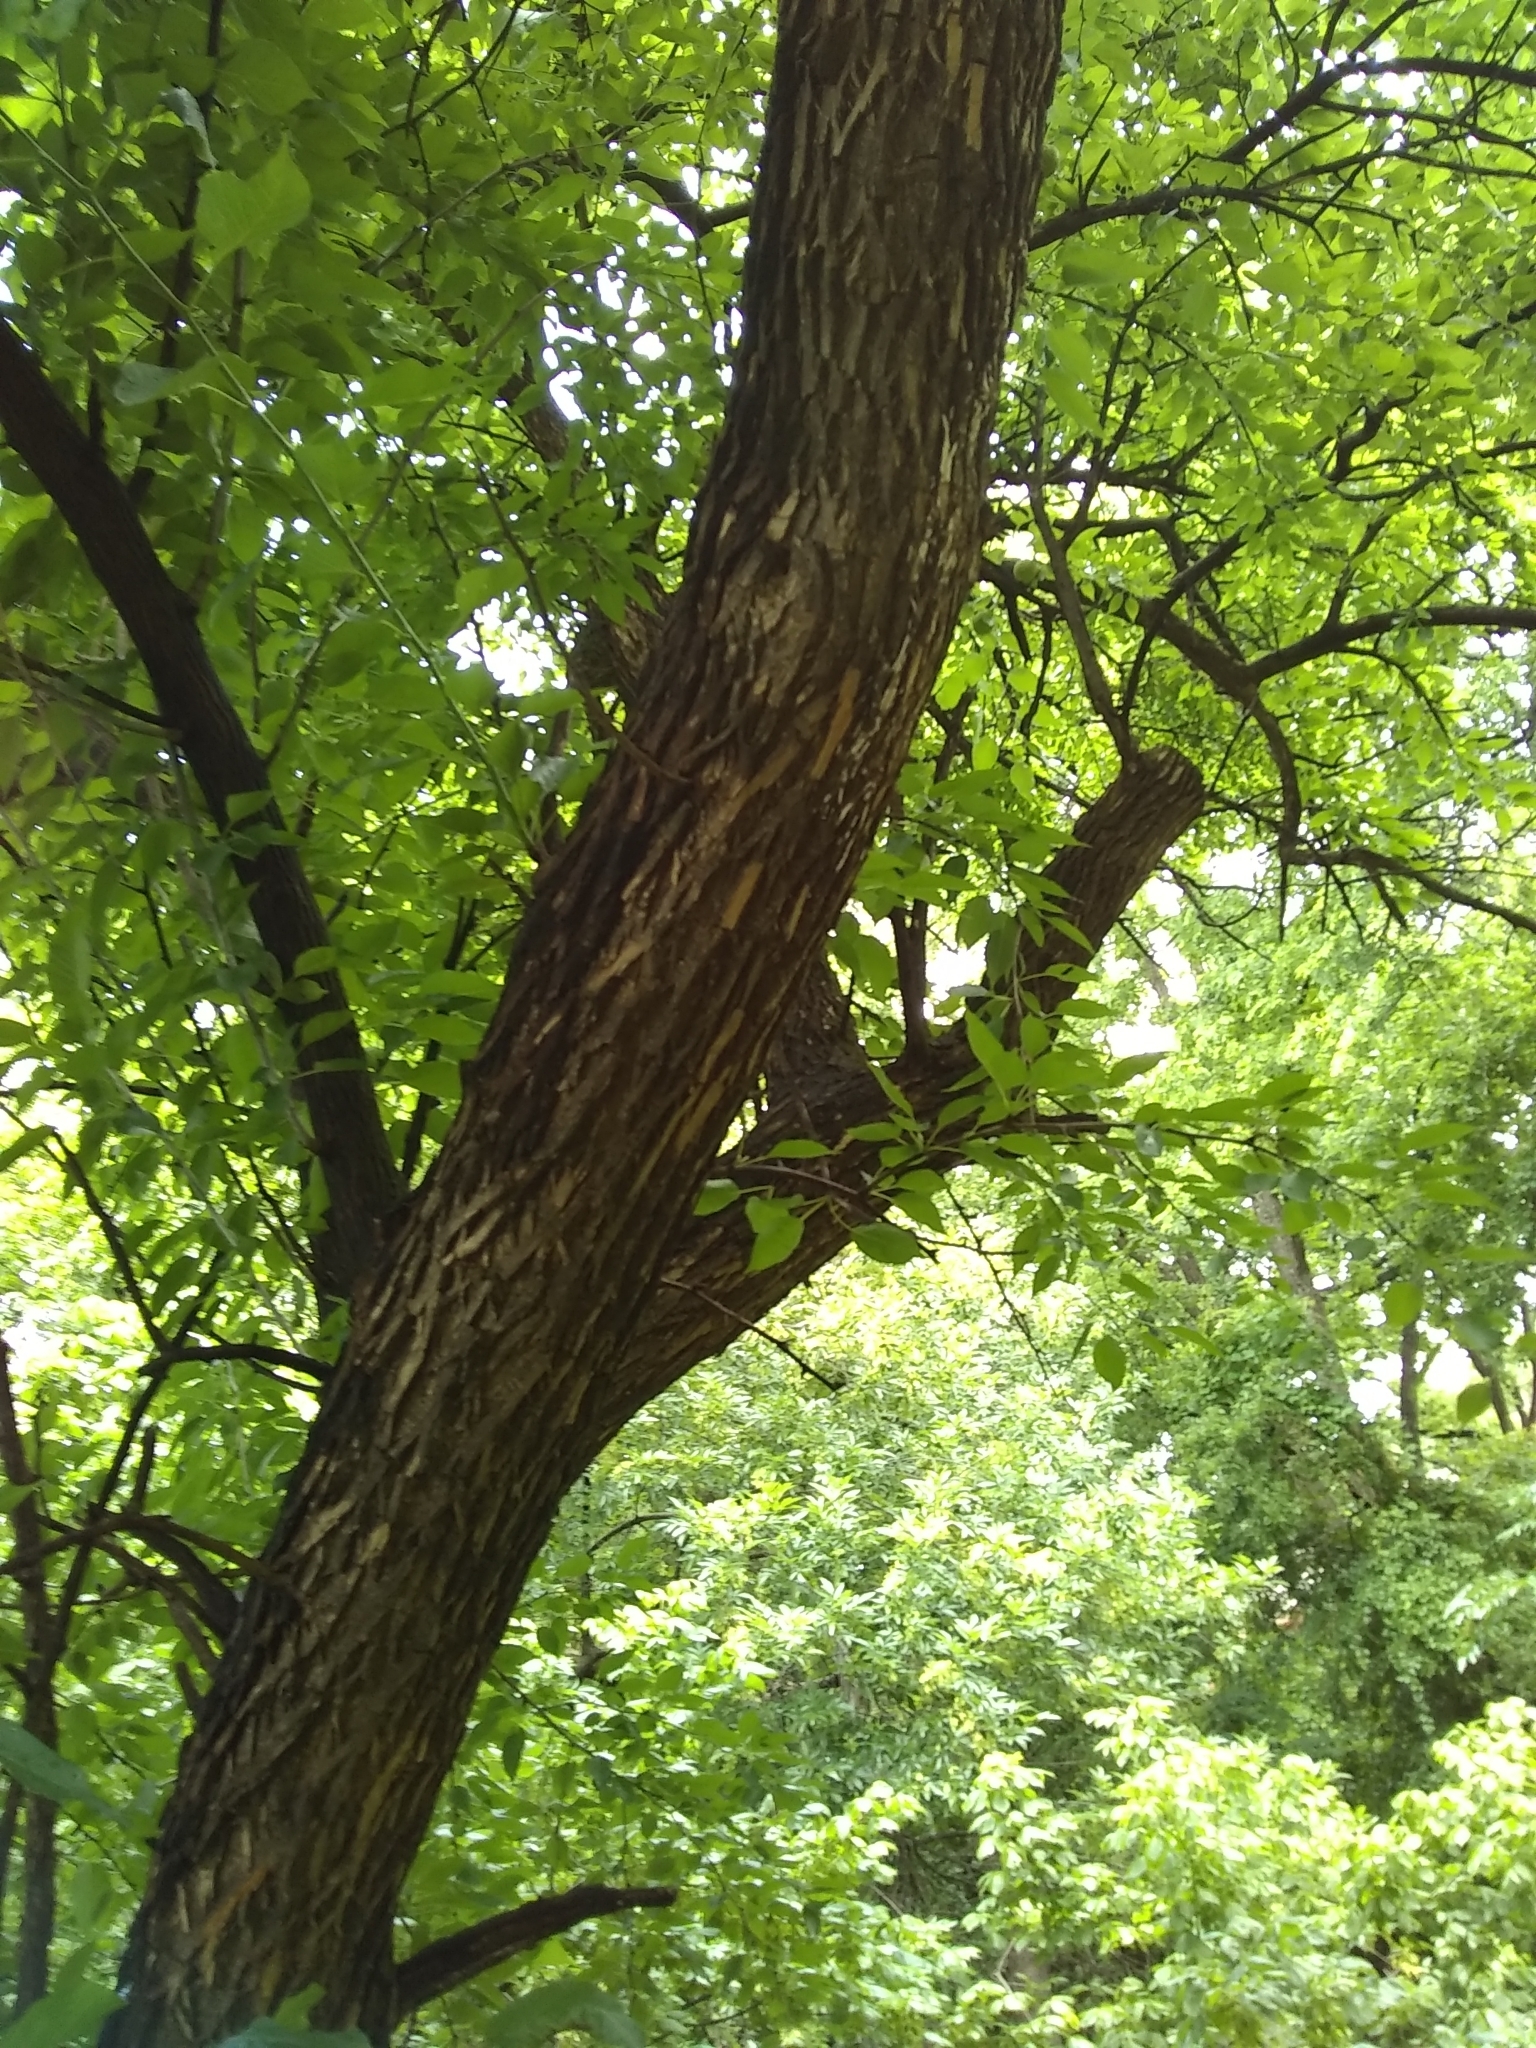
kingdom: Plantae
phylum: Tracheophyta
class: Magnoliopsida
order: Rosales
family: Moraceae
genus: Maclura
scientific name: Maclura pomifera
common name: Osage-orange
